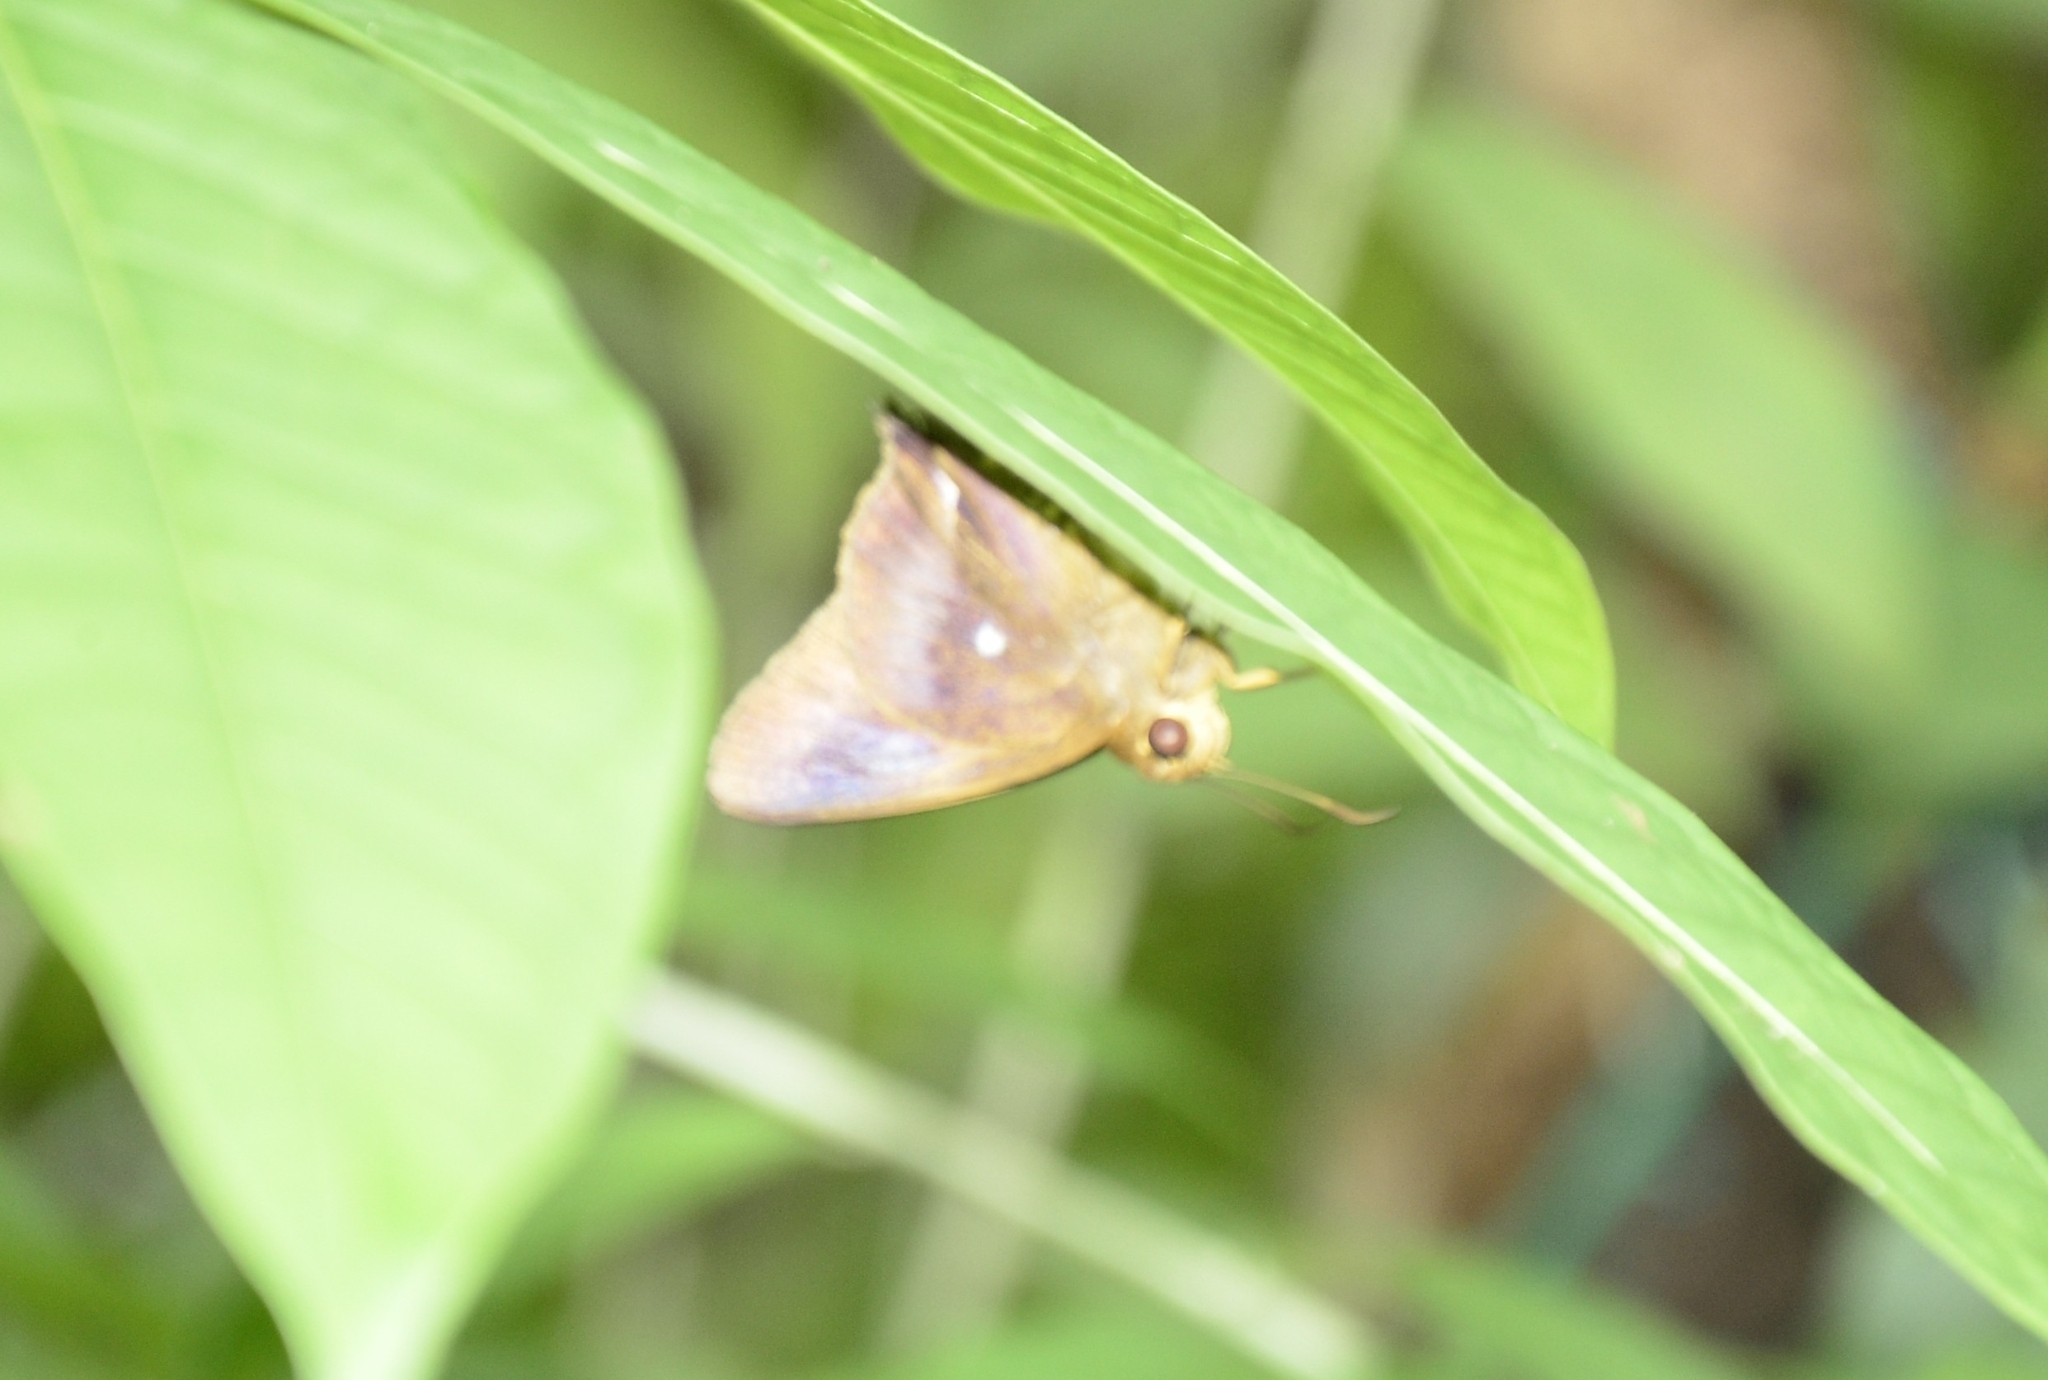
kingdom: Animalia
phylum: Arthropoda
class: Insecta
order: Lepidoptera
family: Hesperiidae
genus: Hasora
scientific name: Hasora badra
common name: Common awl
